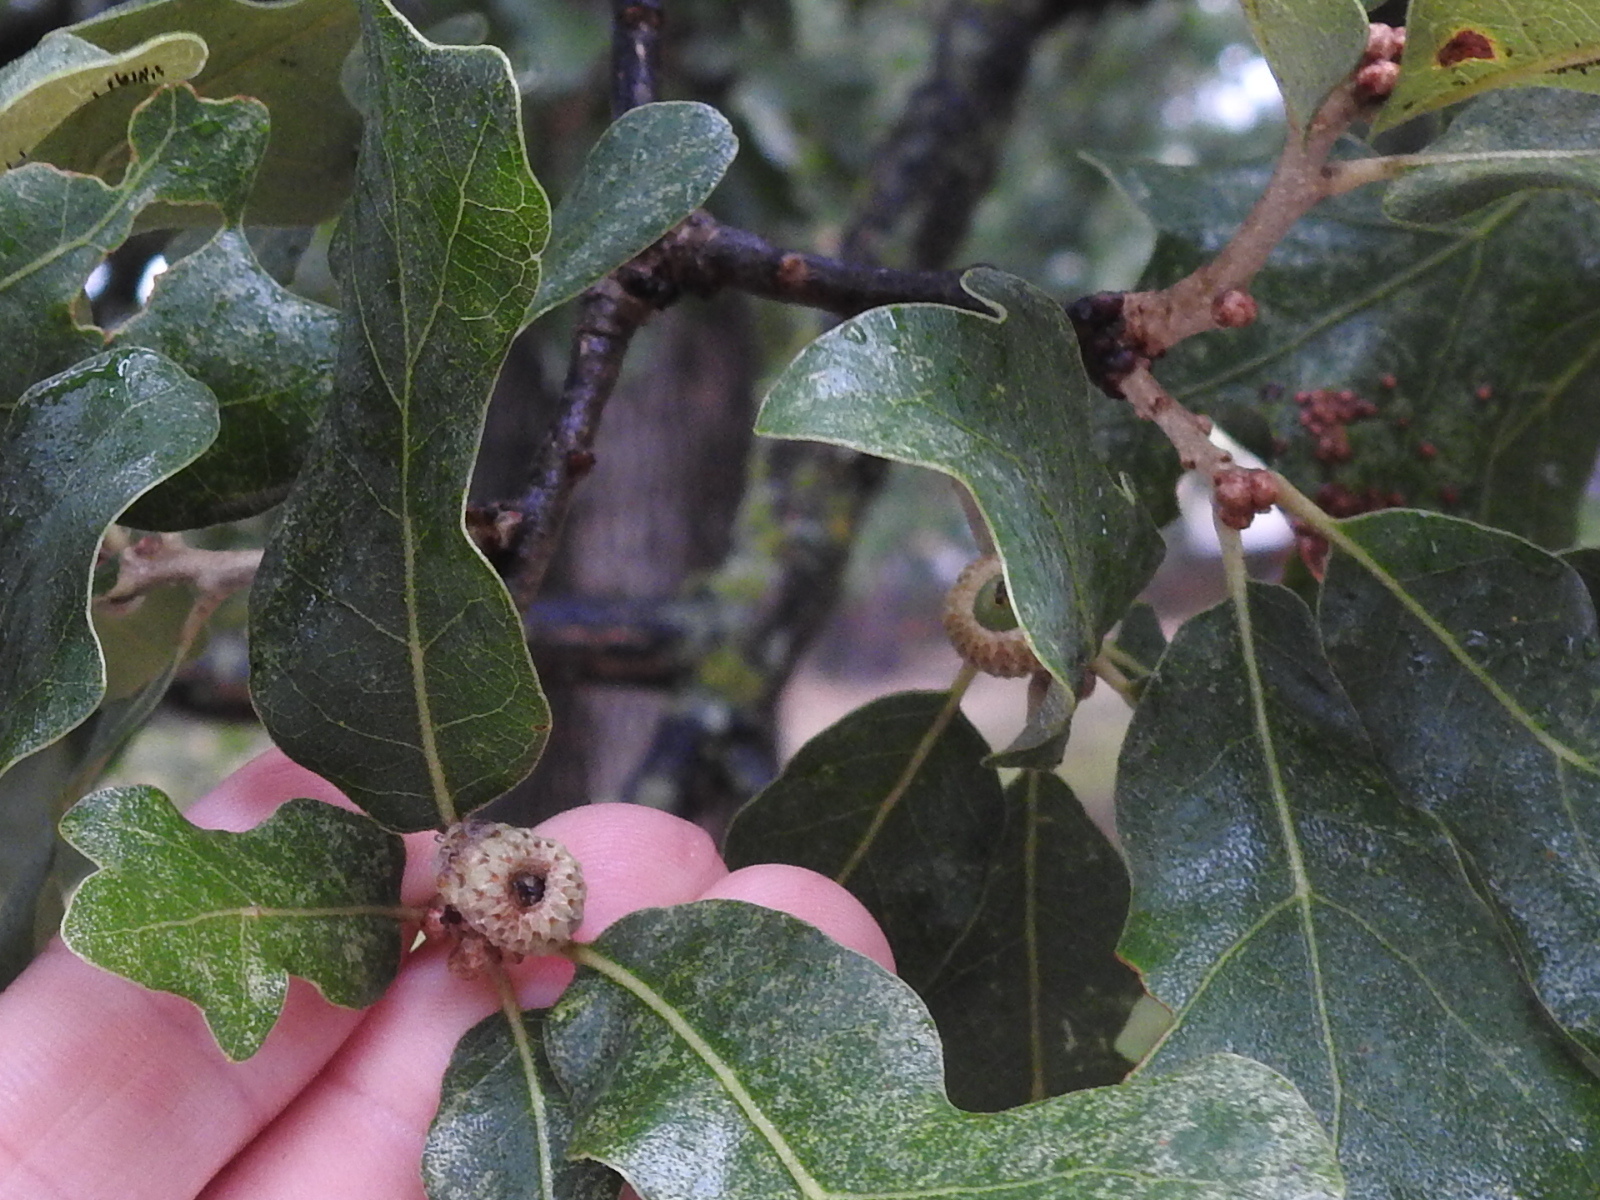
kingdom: Plantae
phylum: Tracheophyta
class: Magnoliopsida
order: Fagales
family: Fagaceae
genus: Quercus
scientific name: Quercus stellata
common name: Post oak
